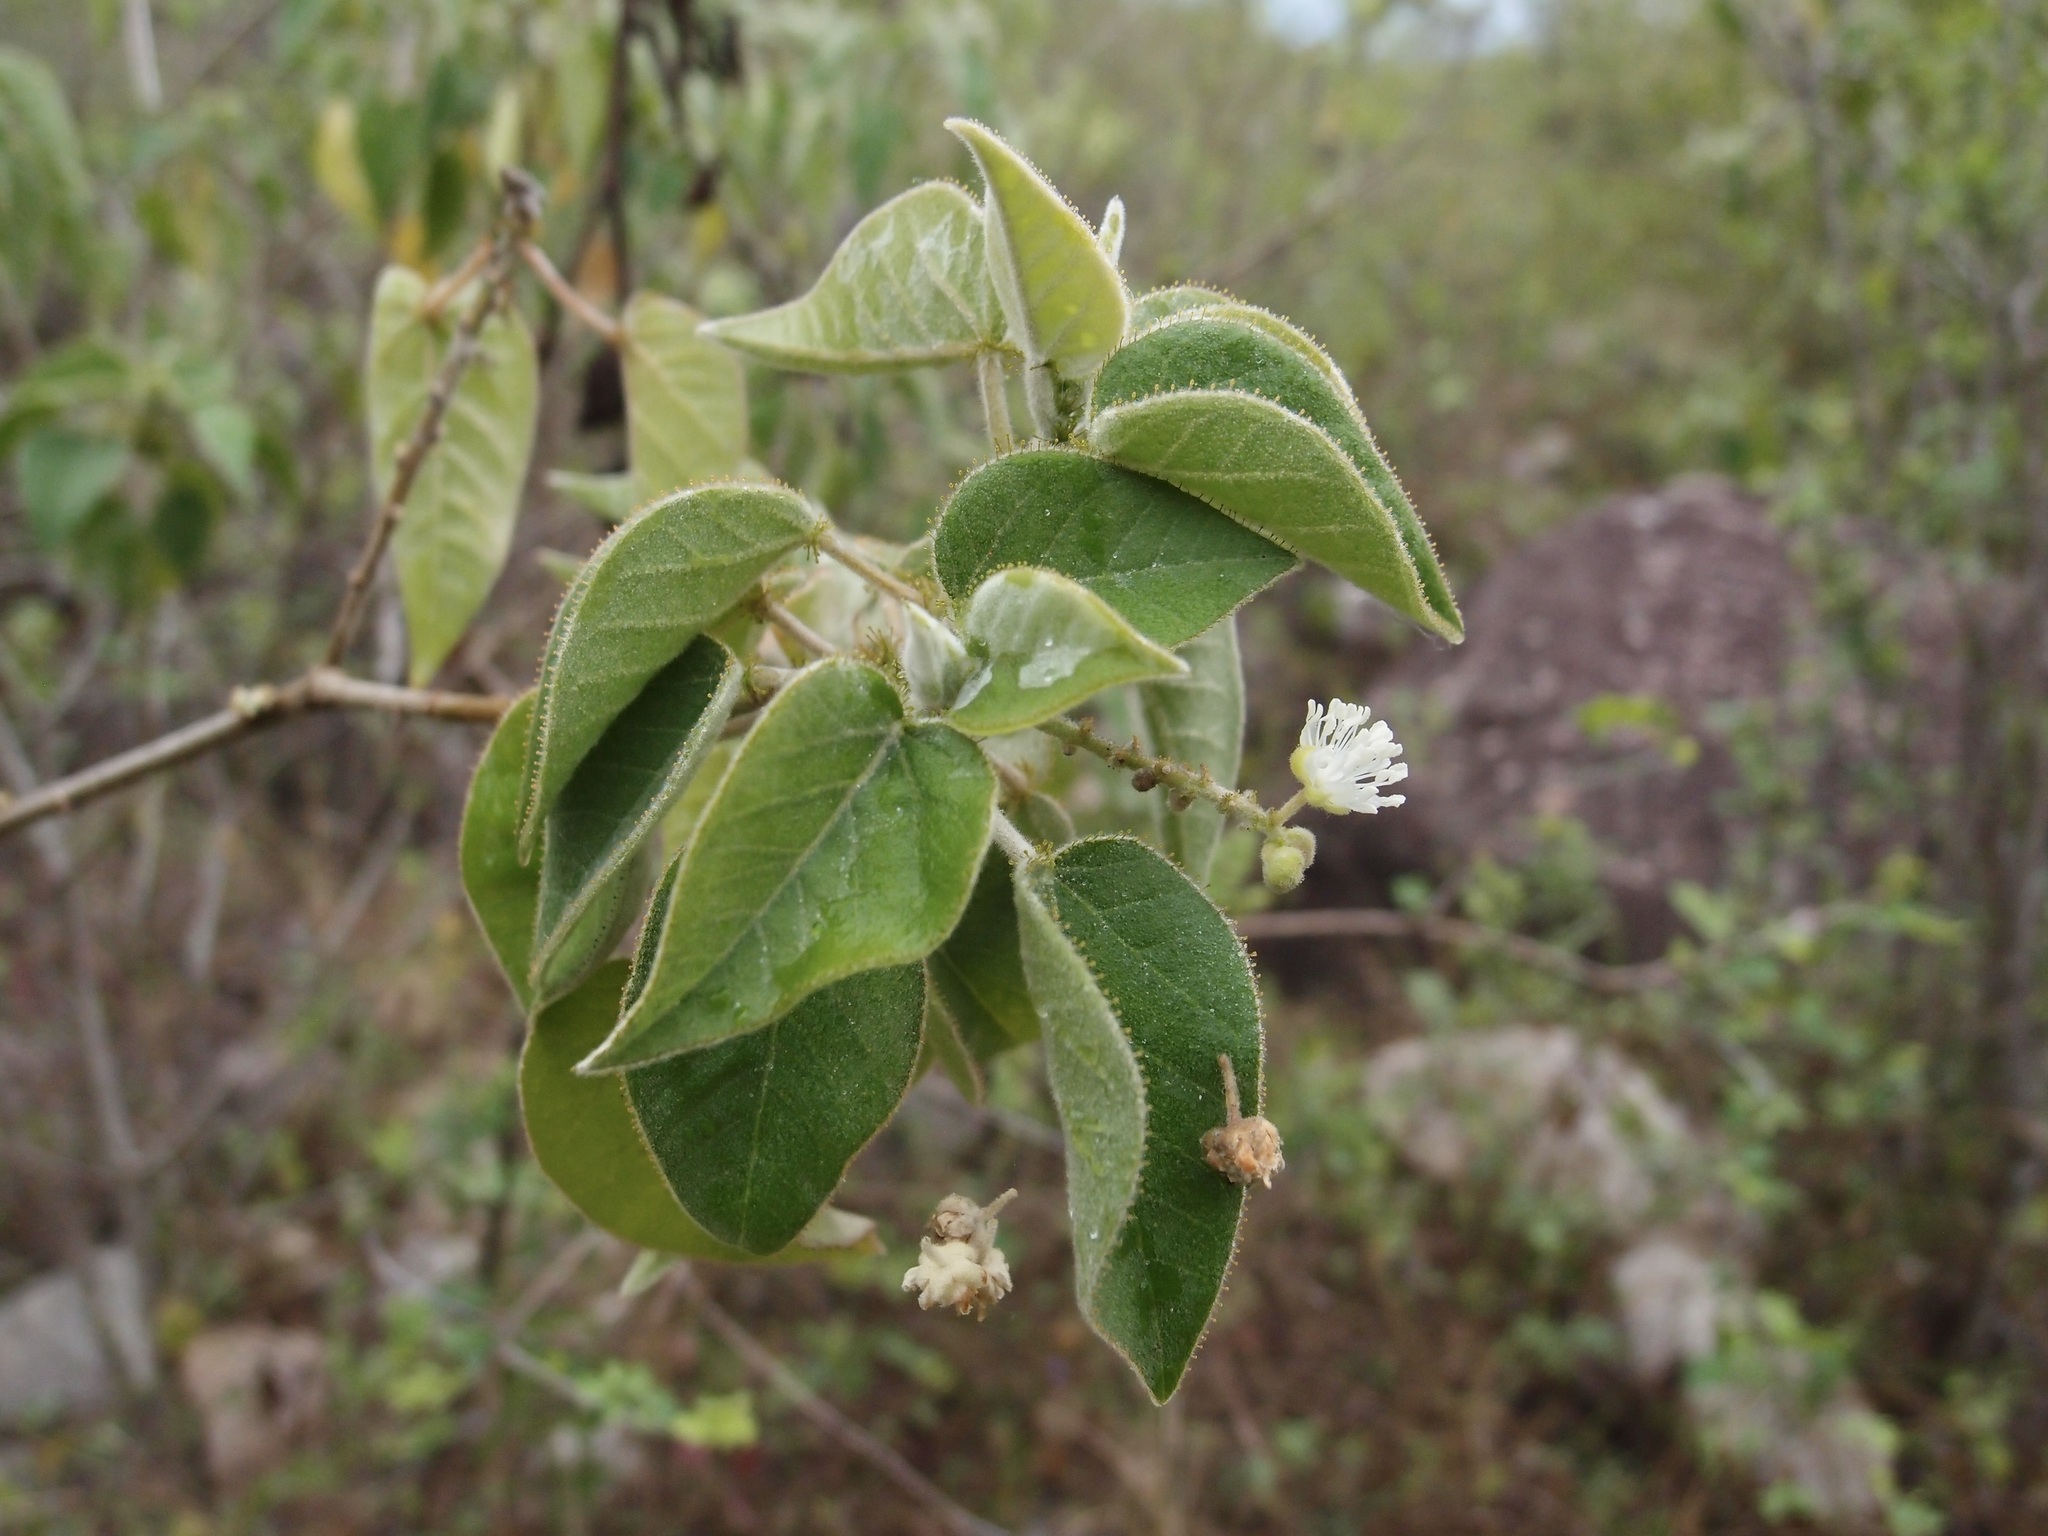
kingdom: Plantae
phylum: Tracheophyta
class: Magnoliopsida
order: Malpighiales
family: Euphorbiaceae
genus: Croton
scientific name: Croton ciliatoglandulifer
